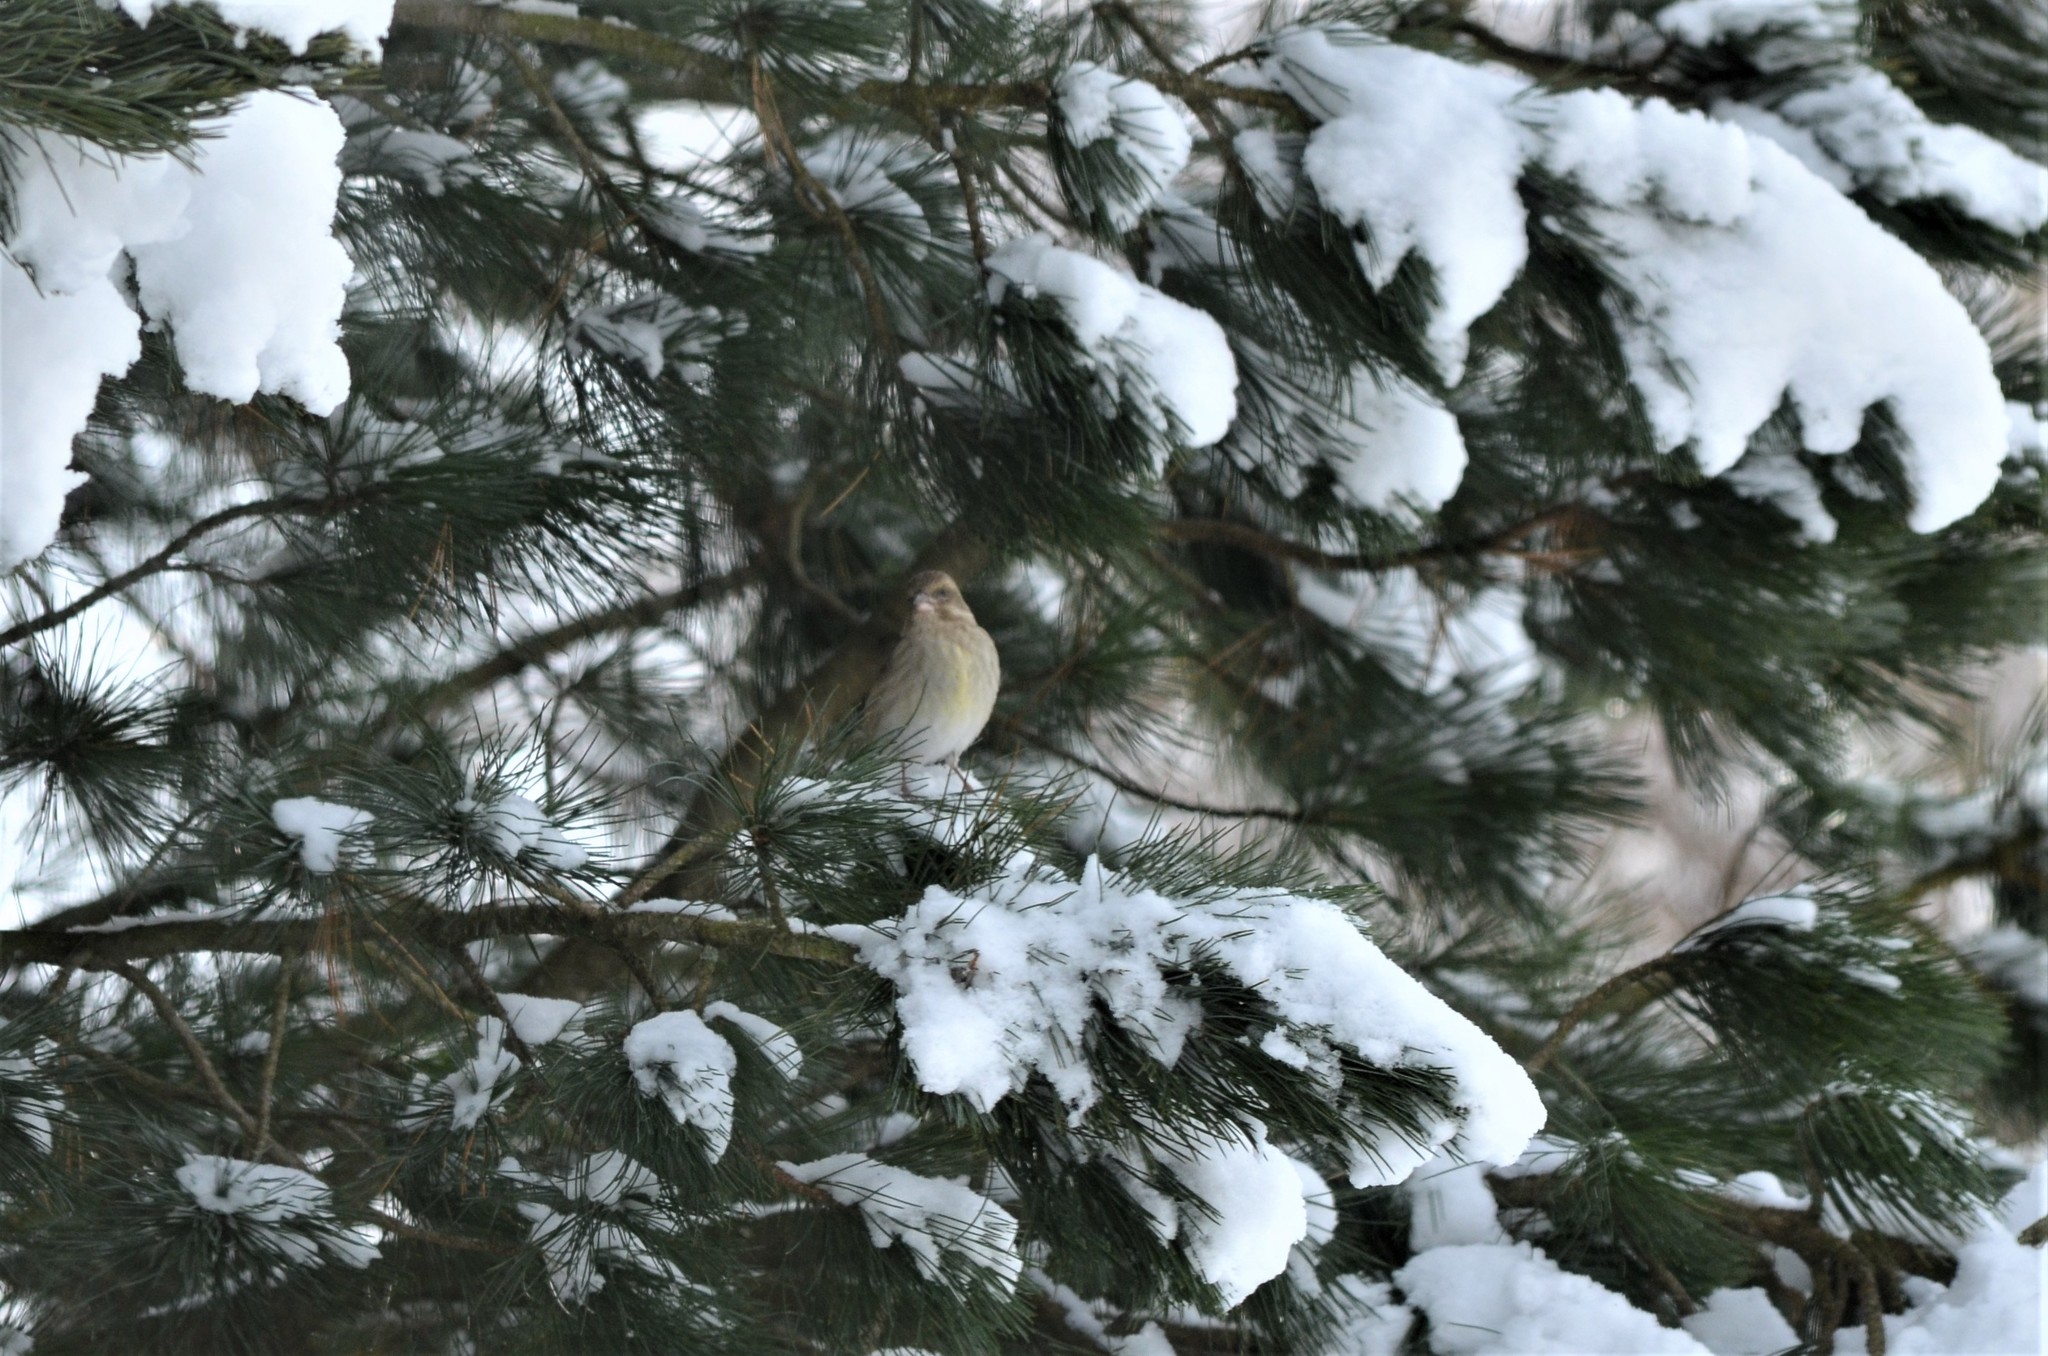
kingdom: Plantae
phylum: Tracheophyta
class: Liliopsida
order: Poales
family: Poaceae
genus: Chloris
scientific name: Chloris chloris
